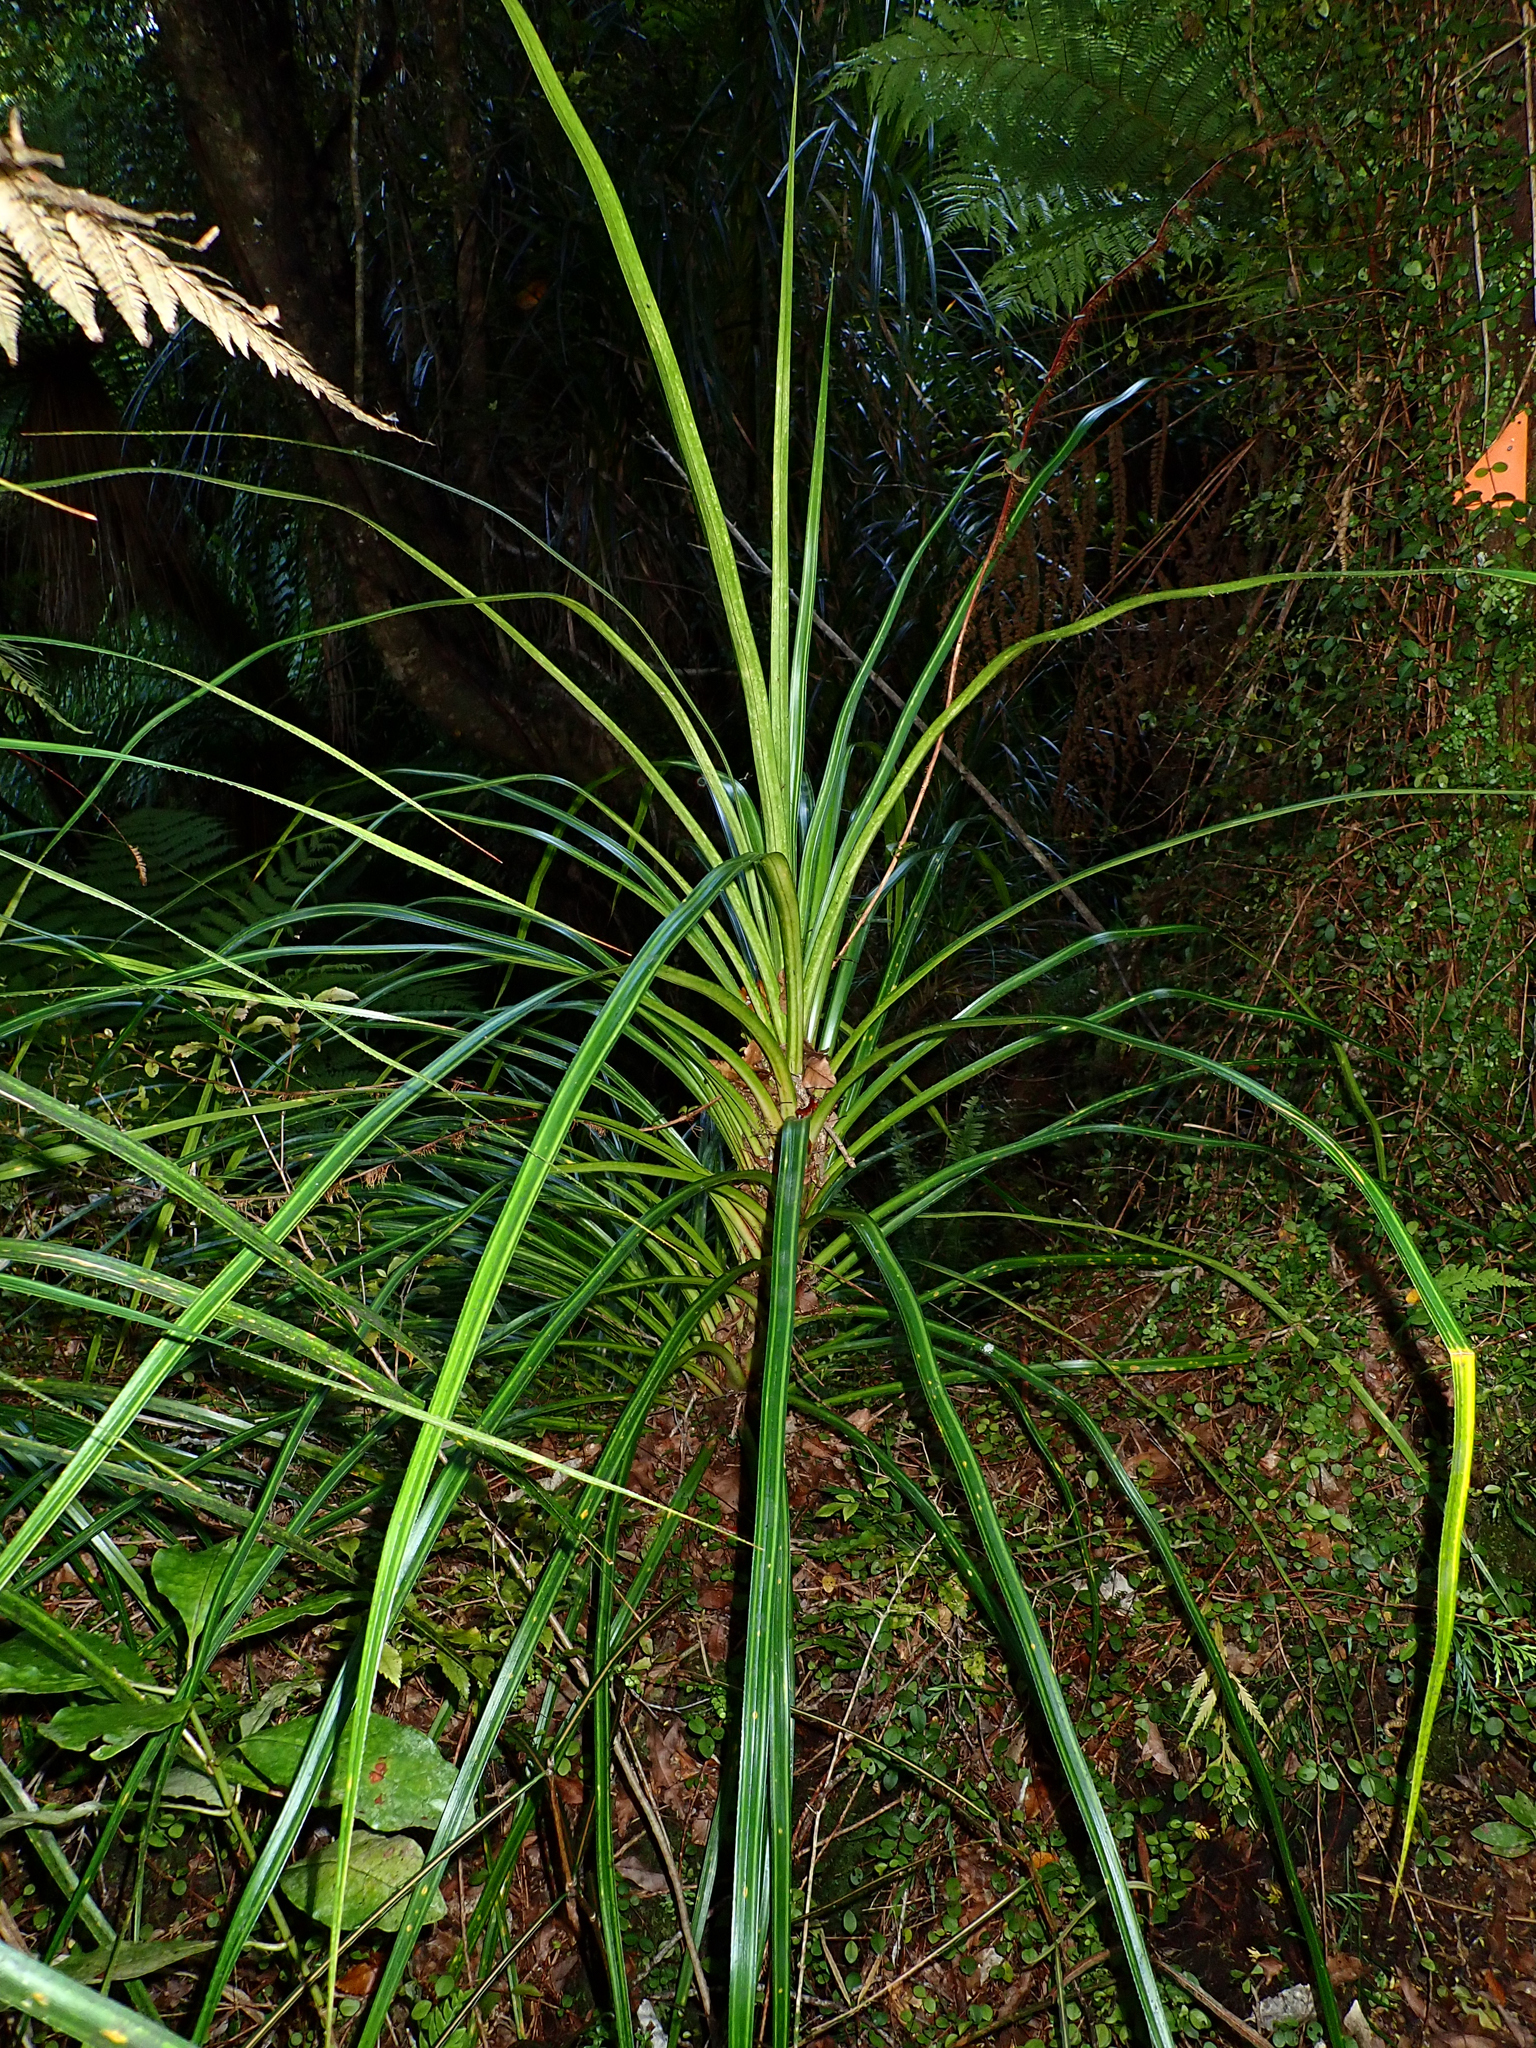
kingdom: Plantae
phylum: Tracheophyta
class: Liliopsida
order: Pandanales
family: Pandanaceae
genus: Freycinetia
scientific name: Freycinetia banksii
